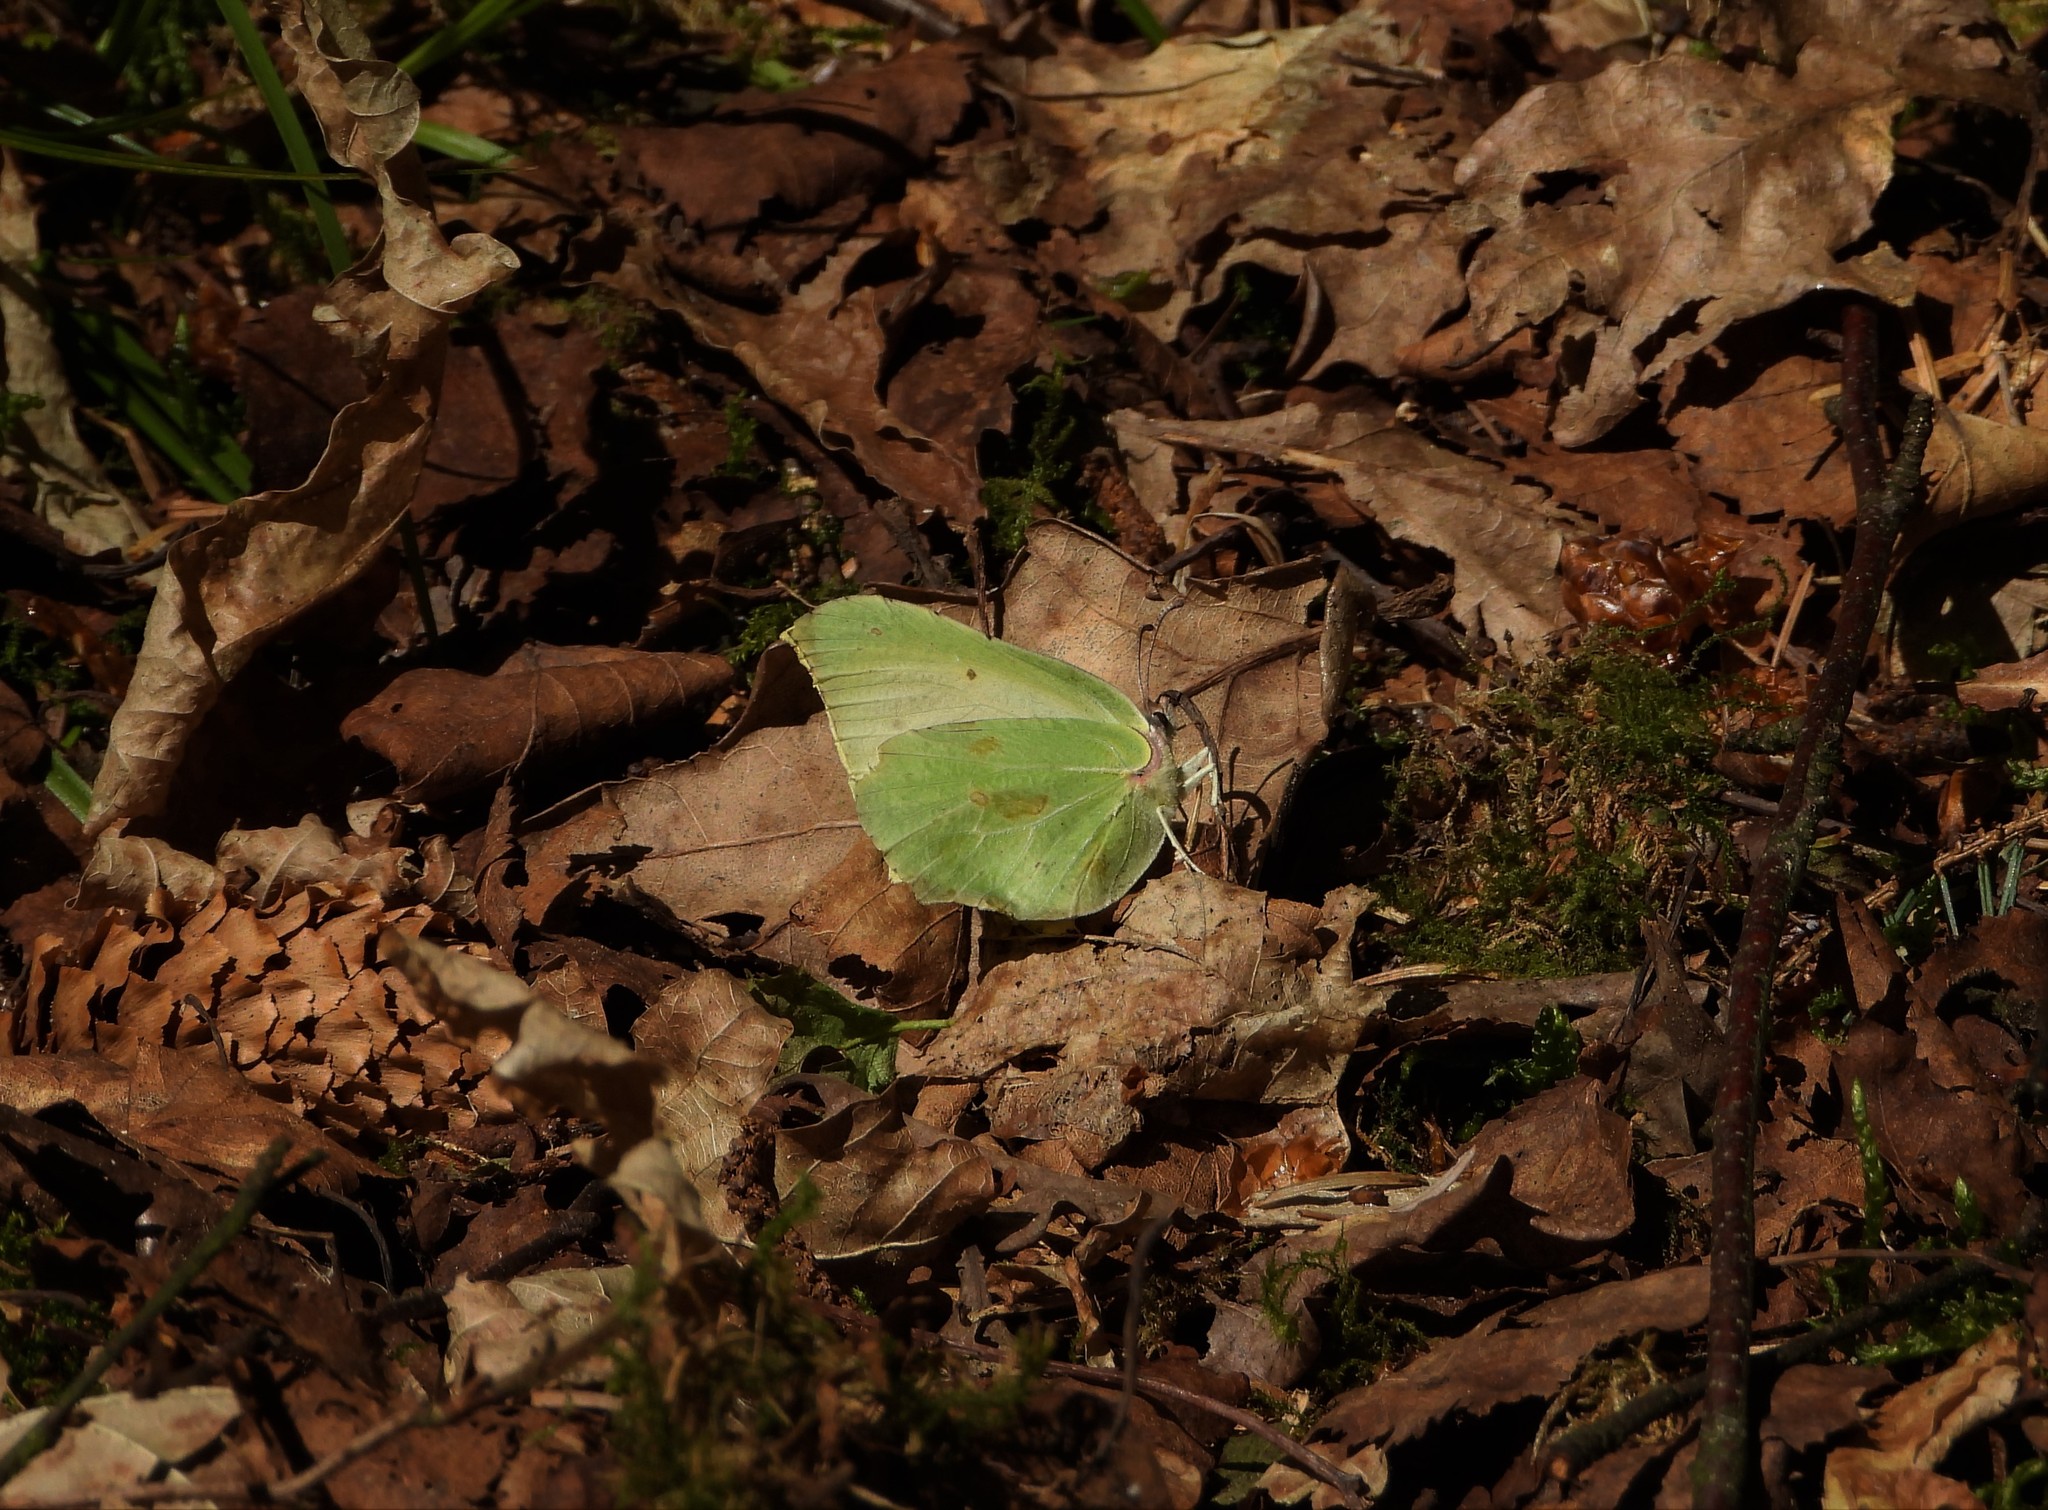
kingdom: Animalia
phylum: Arthropoda
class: Insecta
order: Lepidoptera
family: Pieridae
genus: Gonepteryx
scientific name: Gonepteryx rhamni
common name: Brimstone
